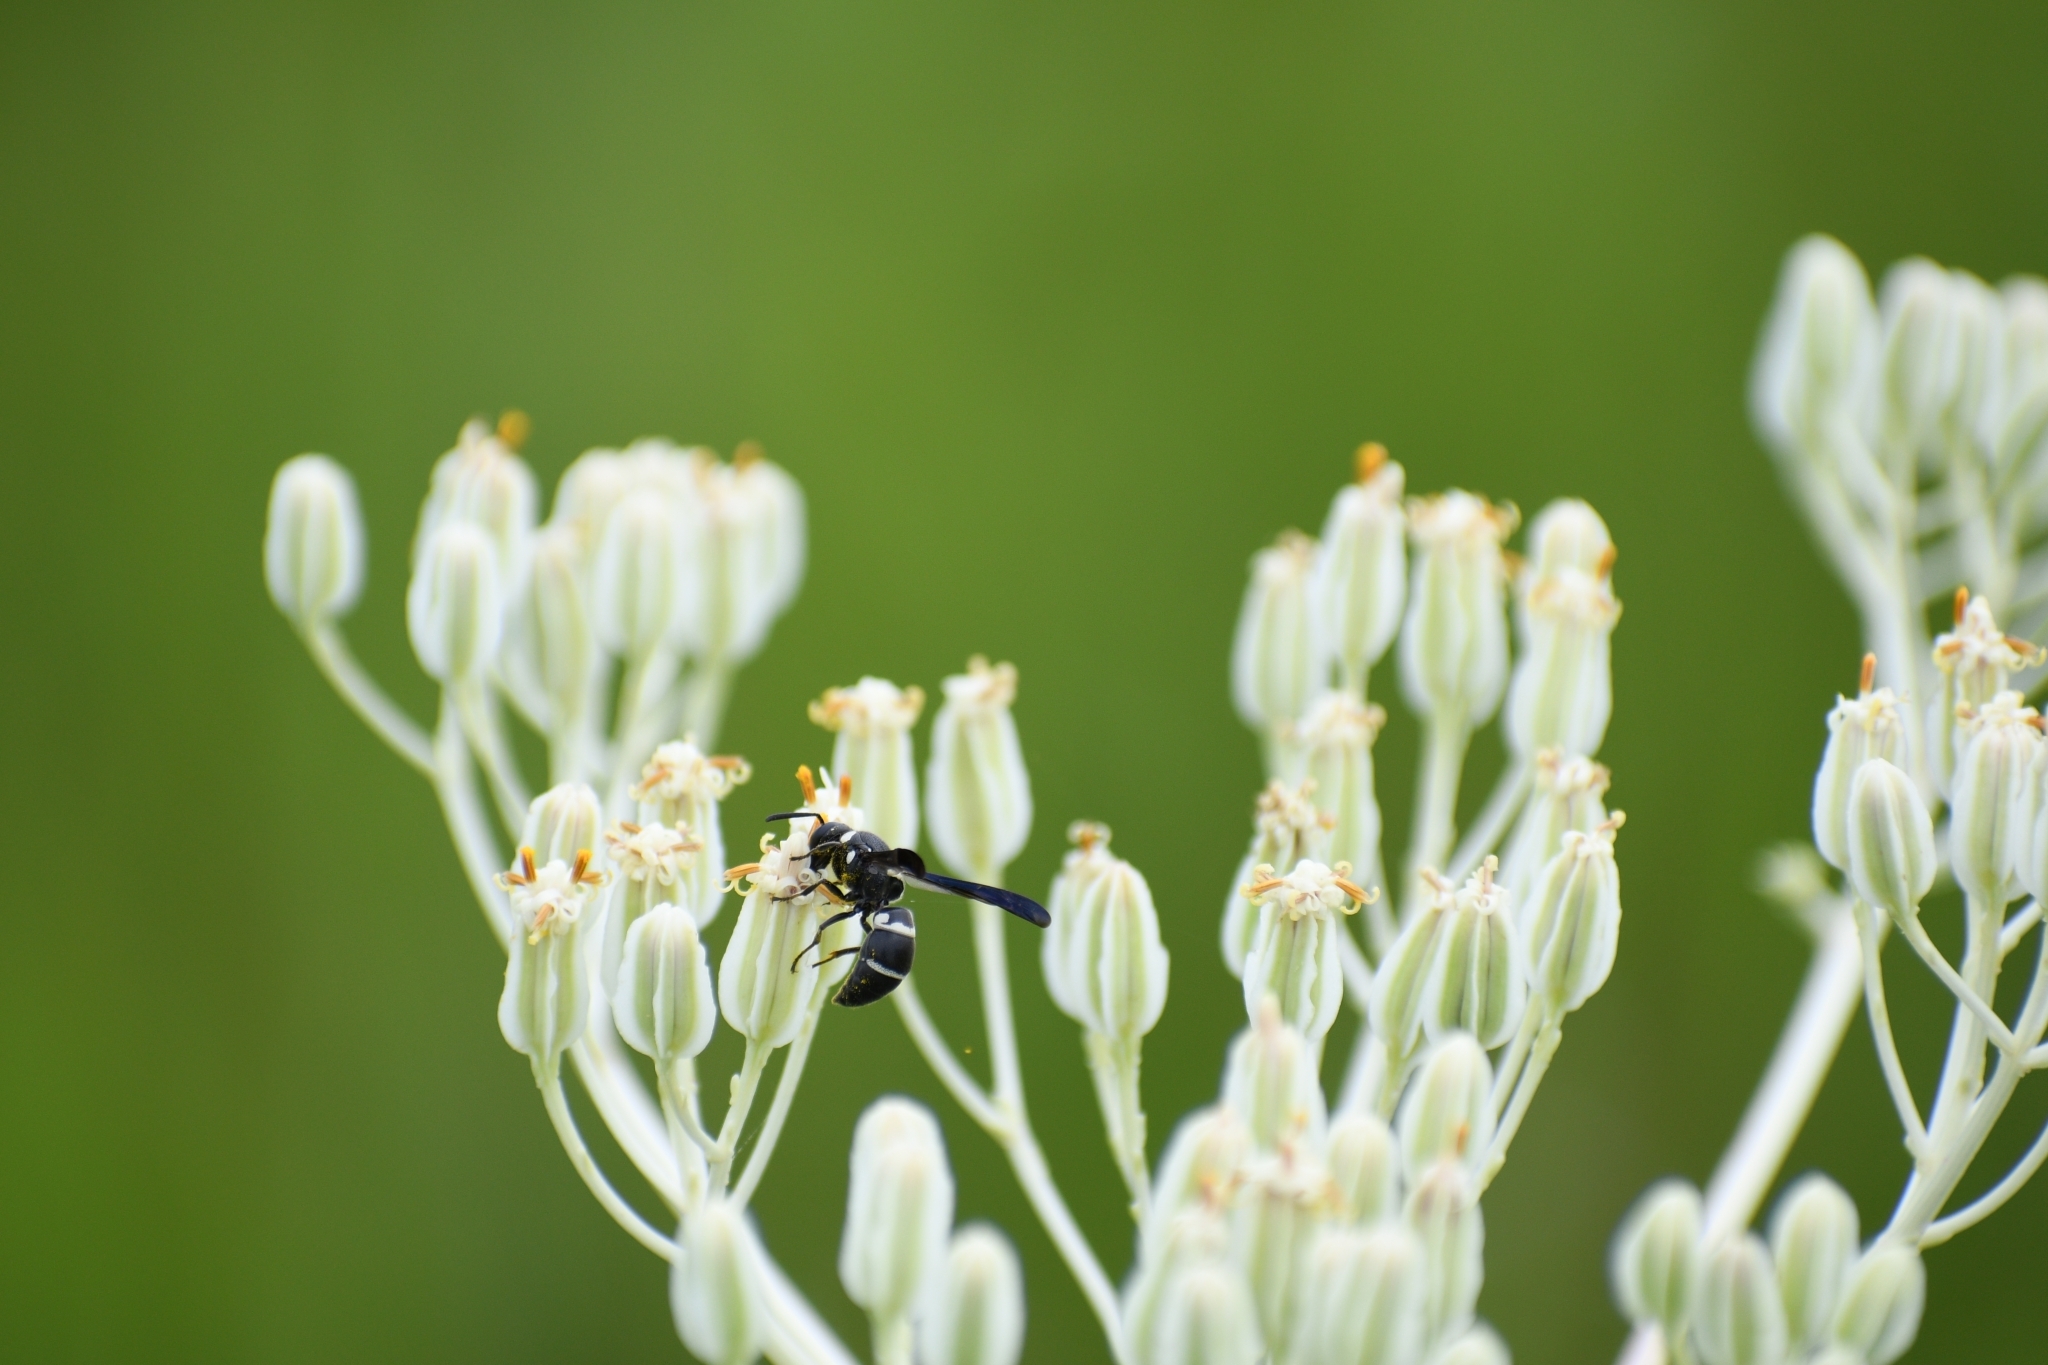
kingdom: Animalia
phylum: Arthropoda
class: Insecta
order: Hymenoptera
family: Eumenidae
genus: Euodynerus
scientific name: Euodynerus megaera
